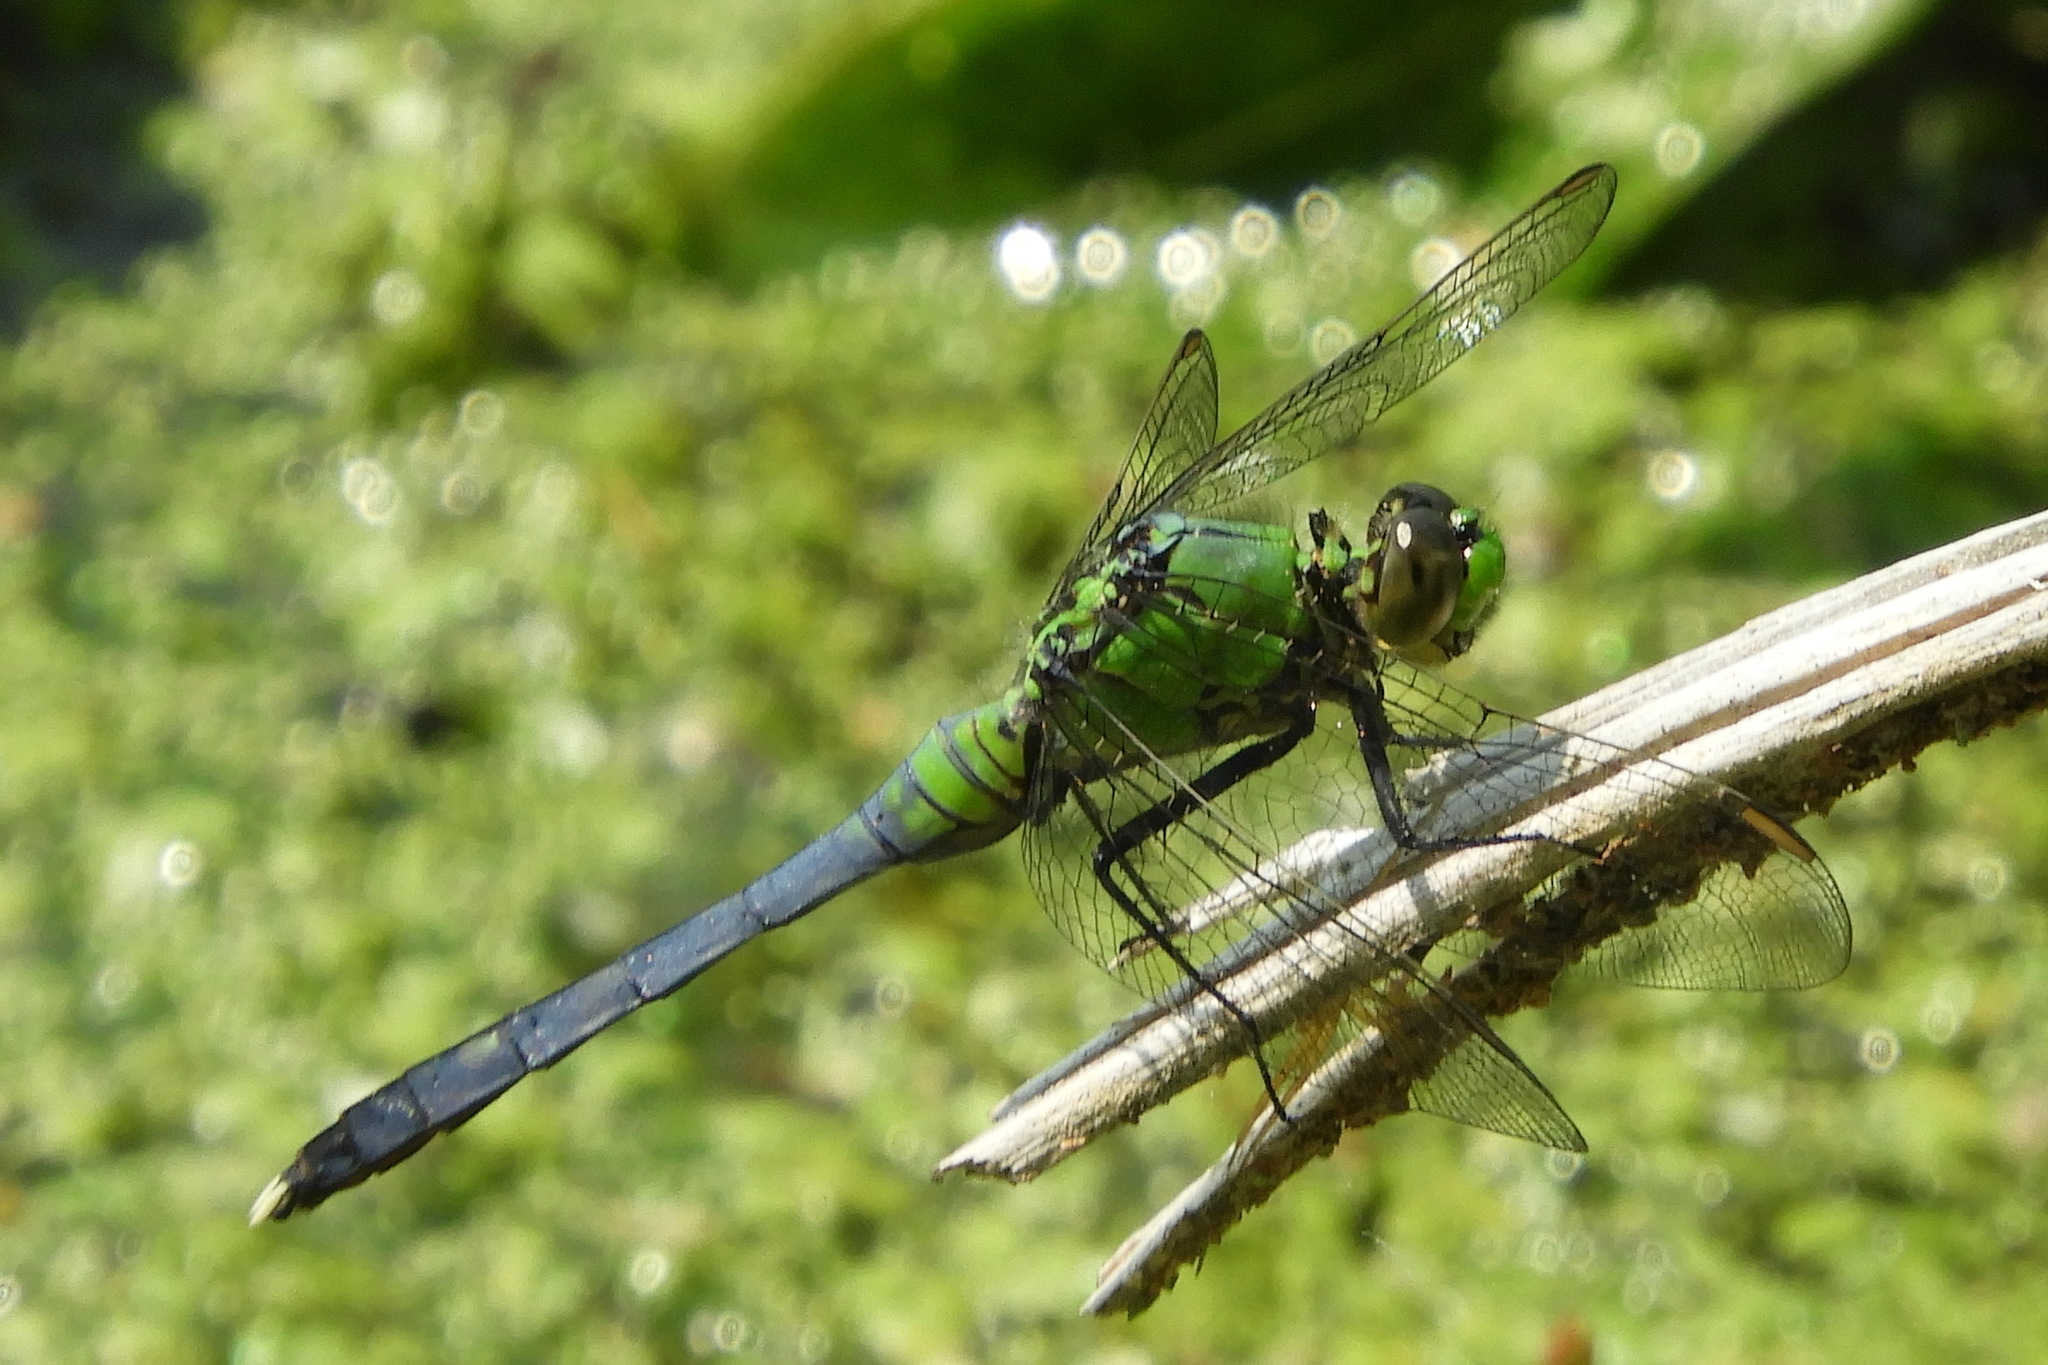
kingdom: Animalia
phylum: Arthropoda
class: Insecta
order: Odonata
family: Libellulidae
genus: Erythemis
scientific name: Erythemis simplicicollis
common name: Eastern pondhawk
